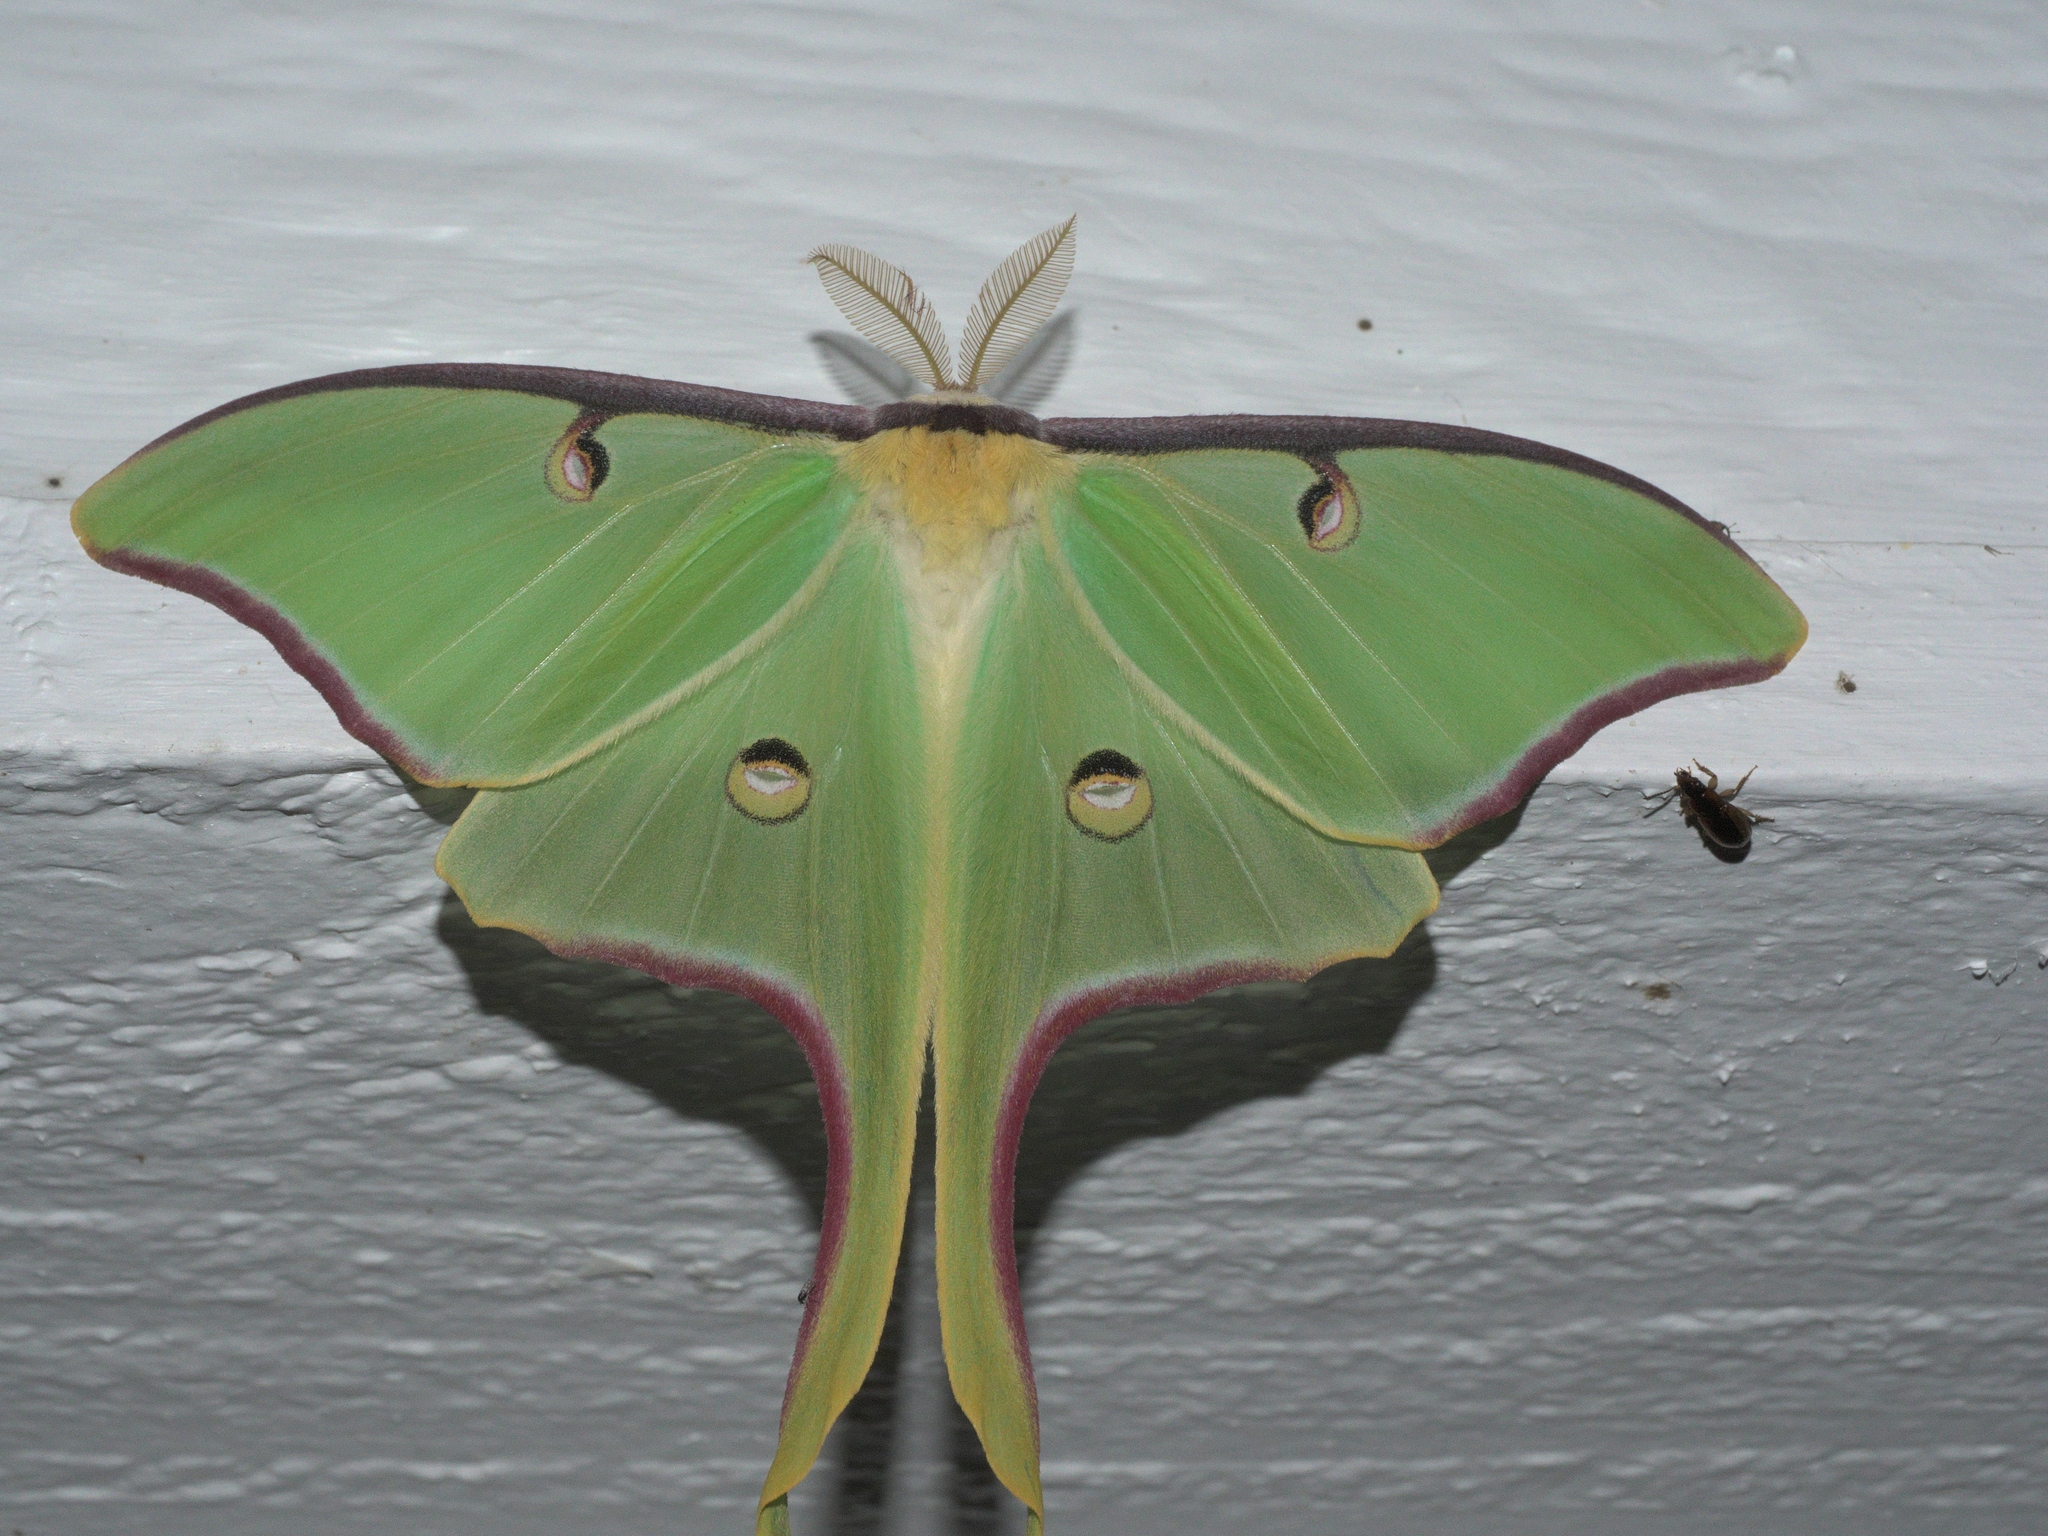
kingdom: Animalia
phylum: Arthropoda
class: Insecta
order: Lepidoptera
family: Saturniidae
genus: Actias
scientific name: Actias luna
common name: Luna moth
